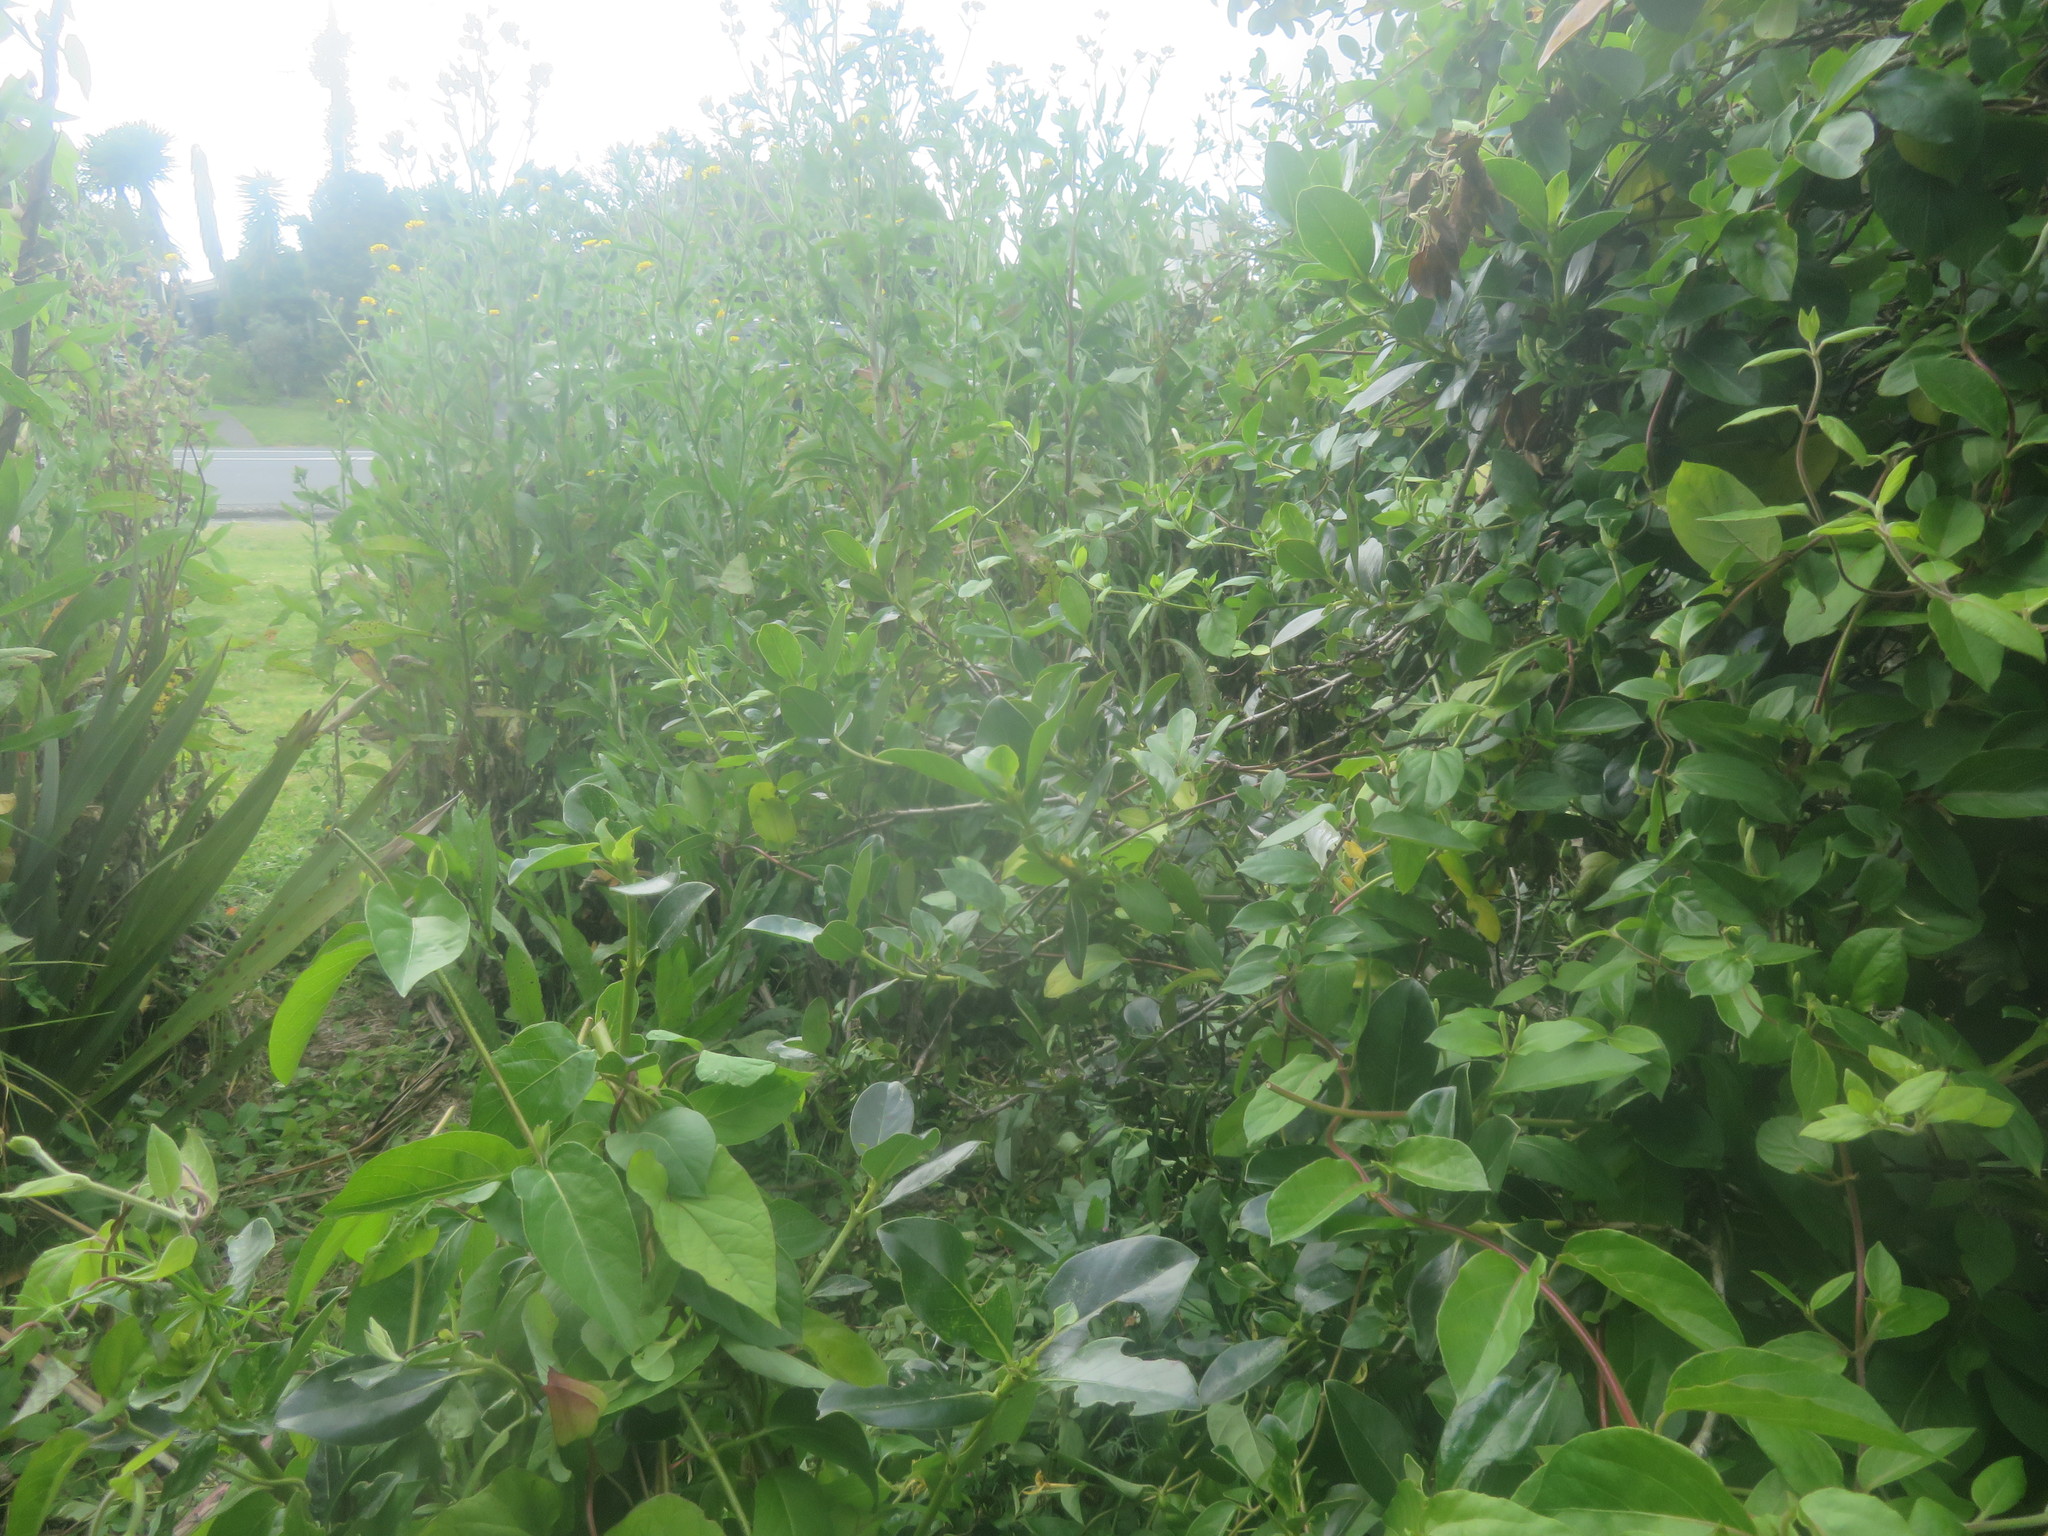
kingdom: Plantae
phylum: Tracheophyta
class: Magnoliopsida
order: Dipsacales
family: Caprifoliaceae
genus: Lonicera
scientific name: Lonicera japonica
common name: Japanese honeysuckle
